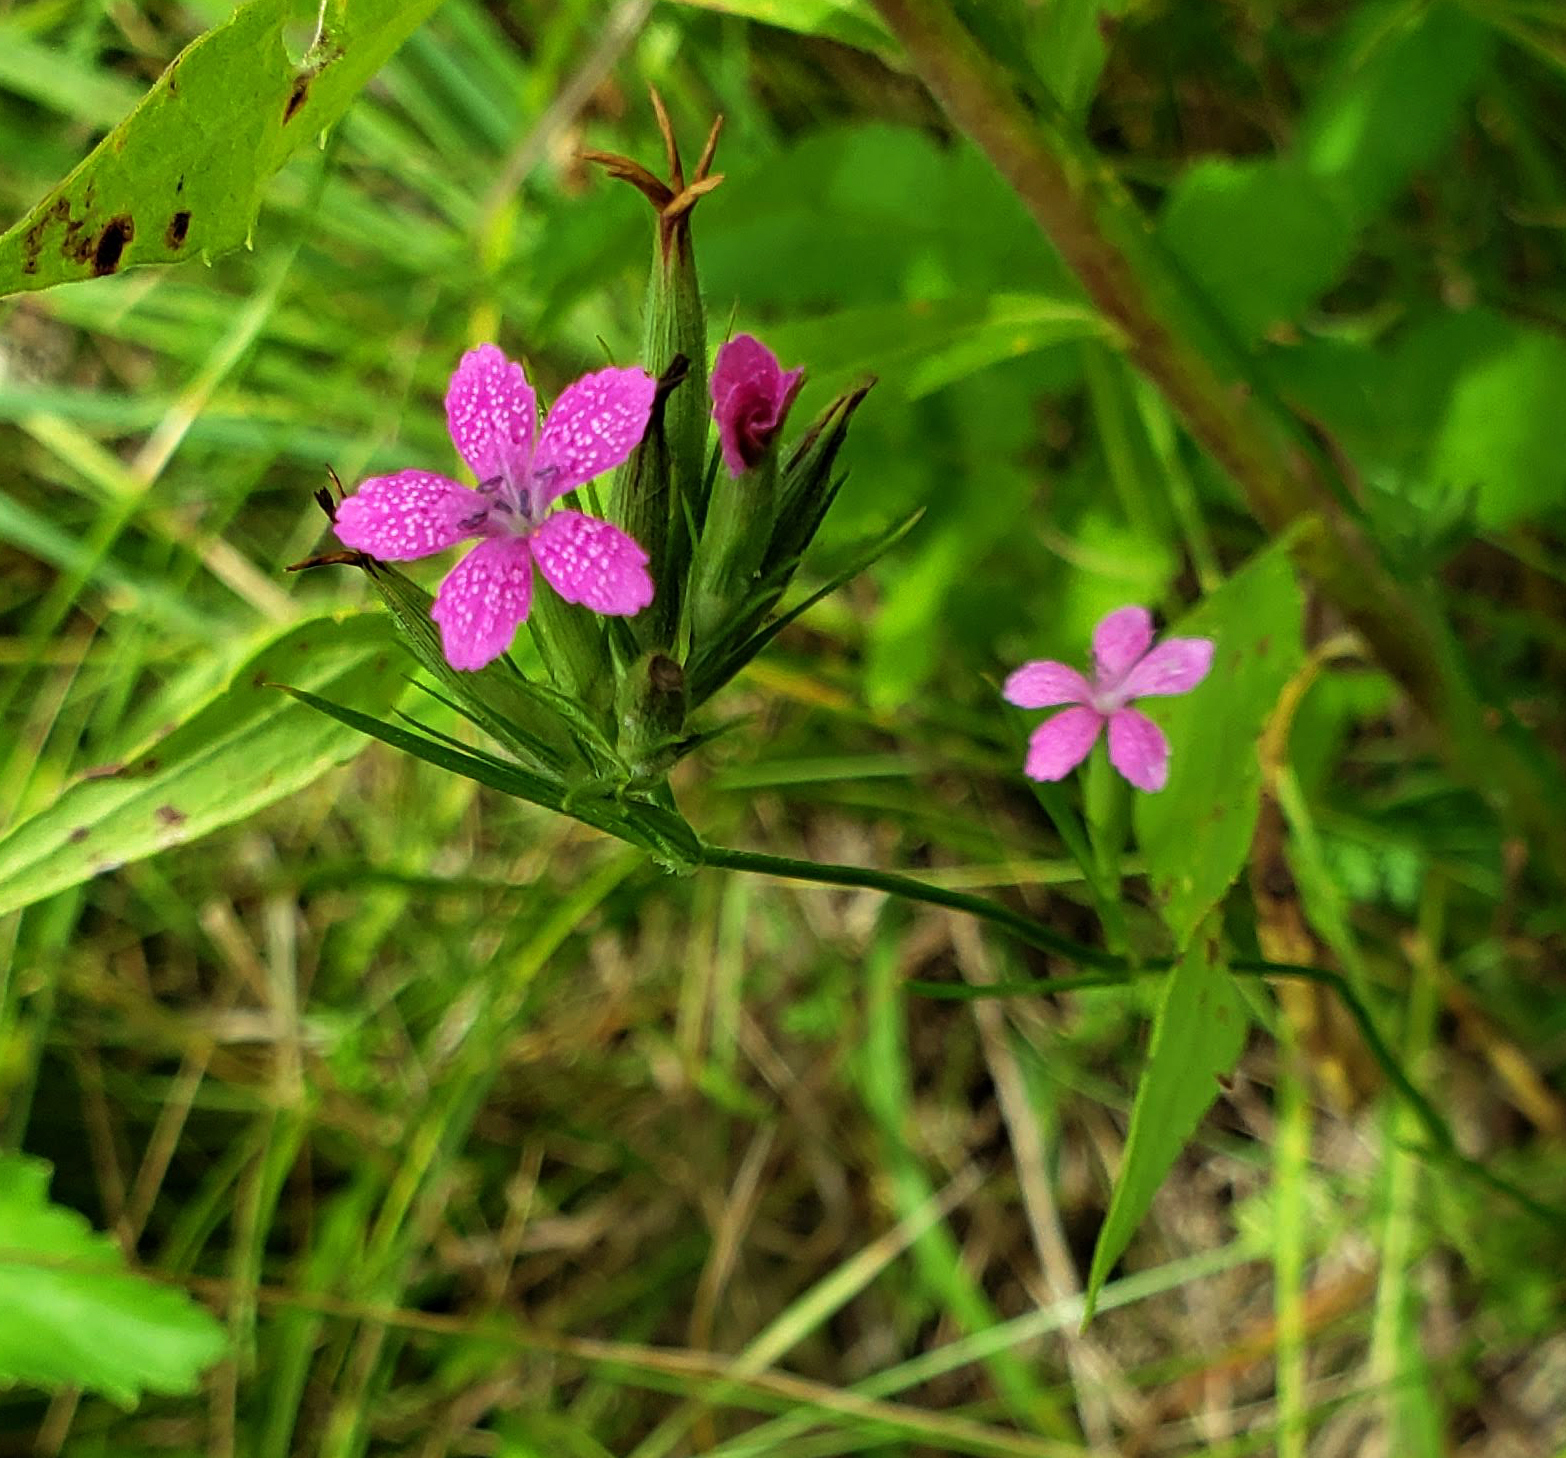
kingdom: Plantae
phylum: Tracheophyta
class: Magnoliopsida
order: Caryophyllales
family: Caryophyllaceae
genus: Dianthus
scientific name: Dianthus armeria
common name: Deptford pink
